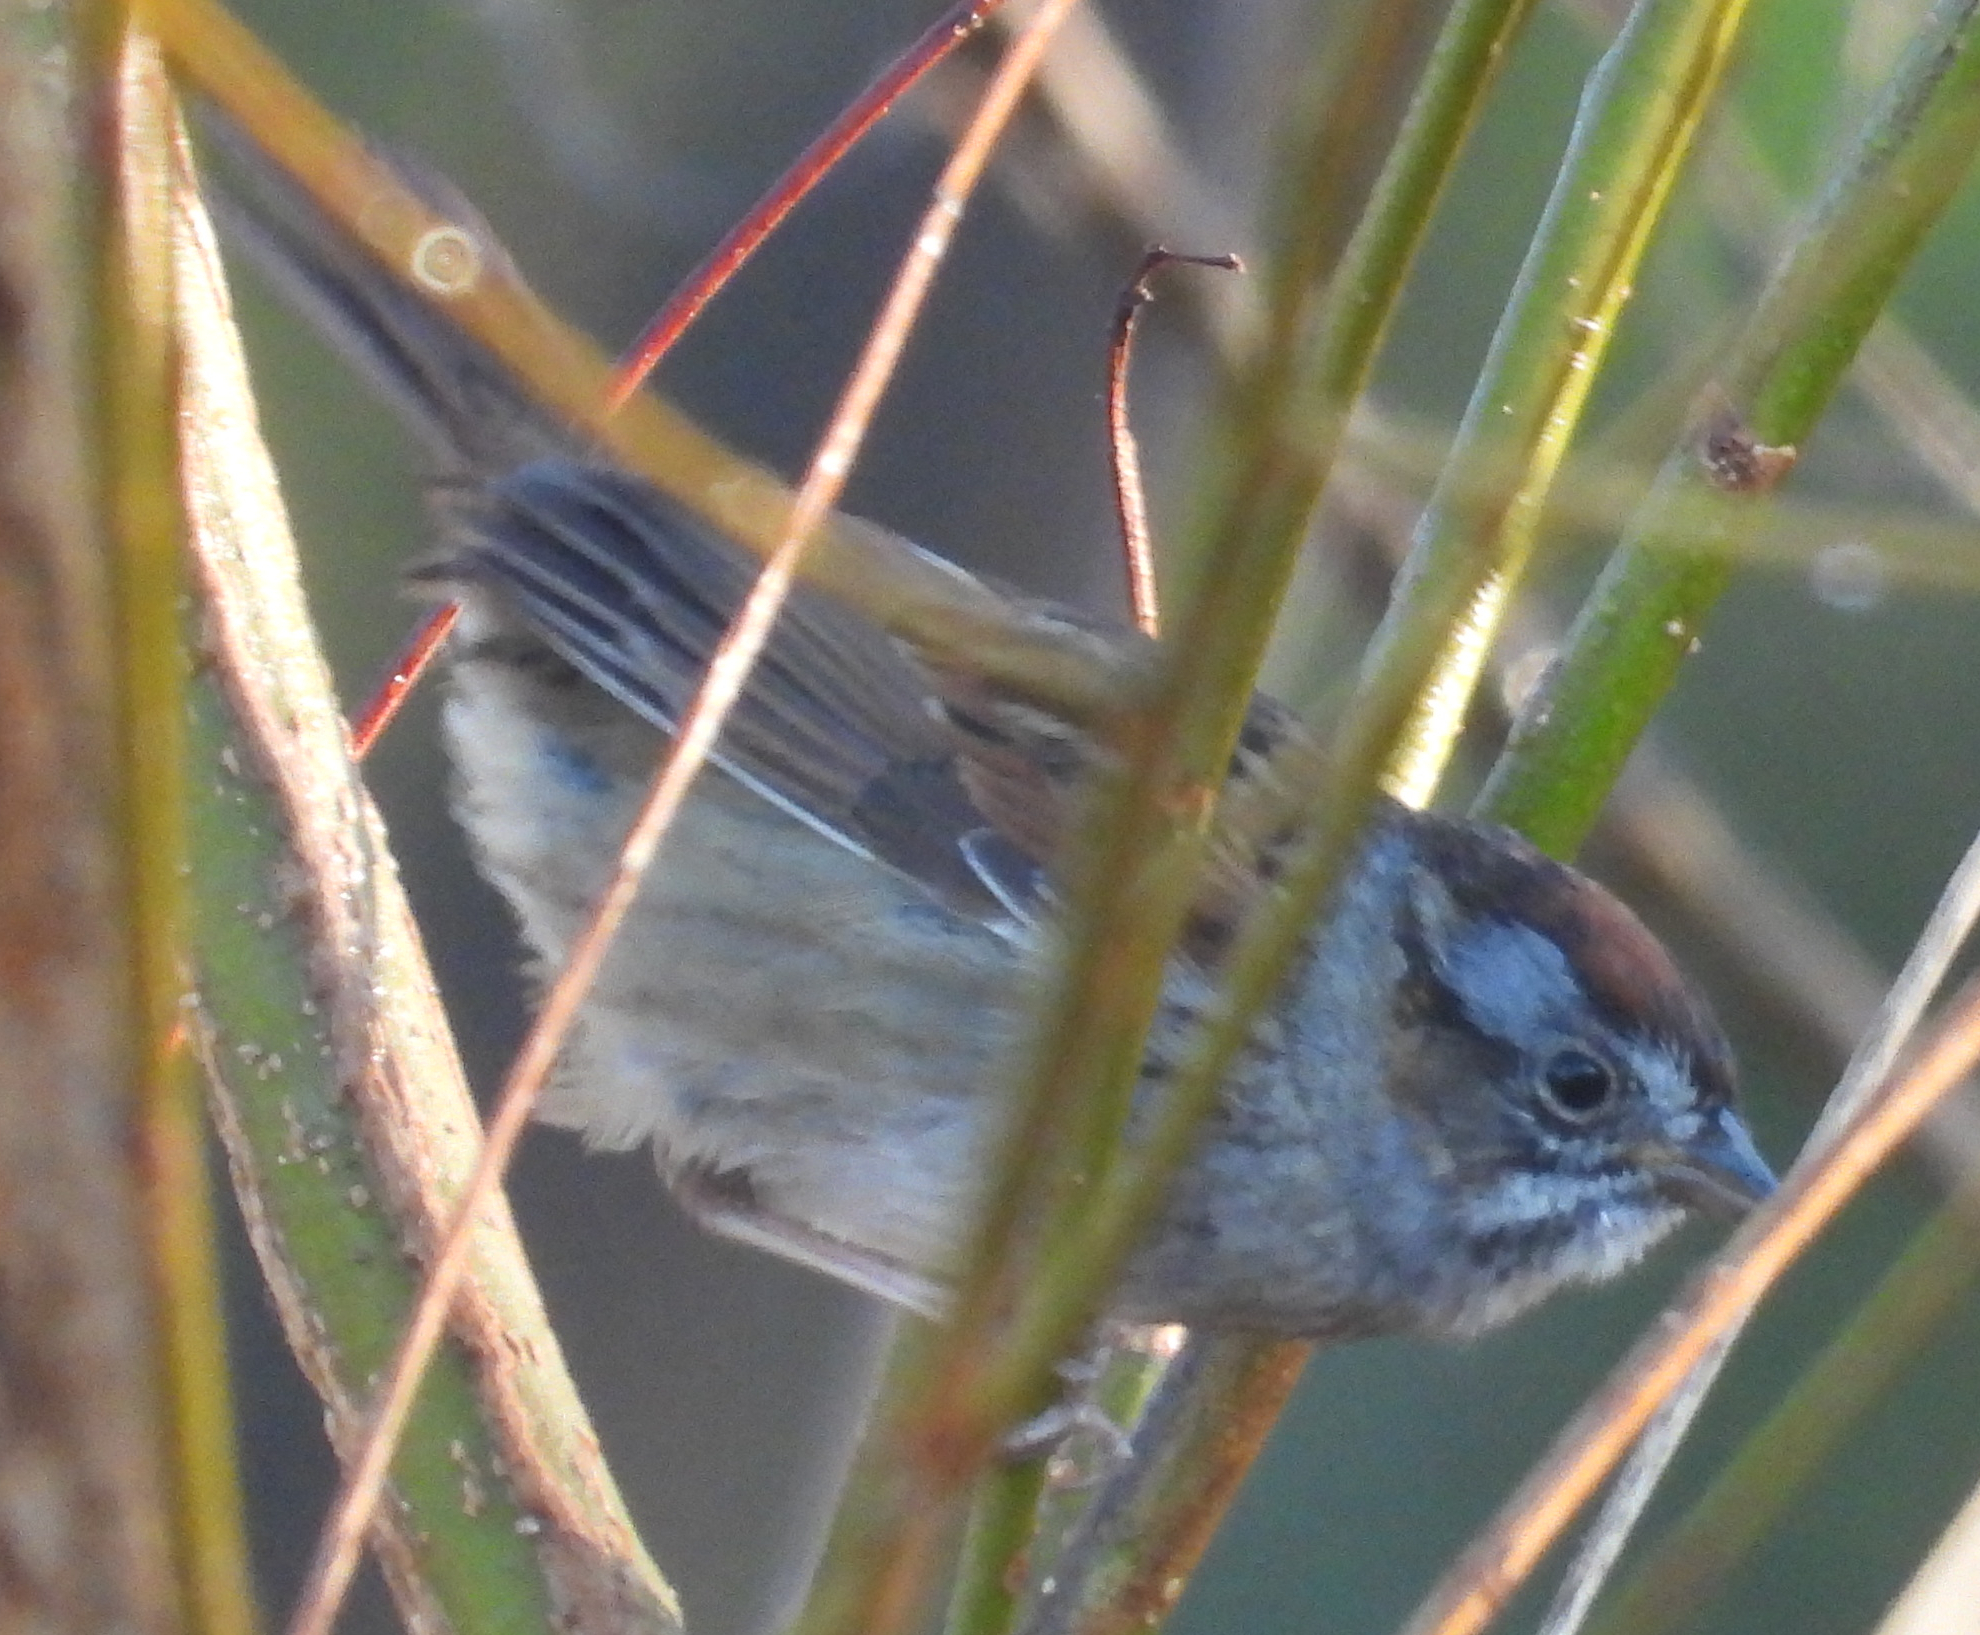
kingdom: Animalia
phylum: Chordata
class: Aves
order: Passeriformes
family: Passerellidae
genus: Melospiza
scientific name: Melospiza georgiana
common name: Swamp sparrow
